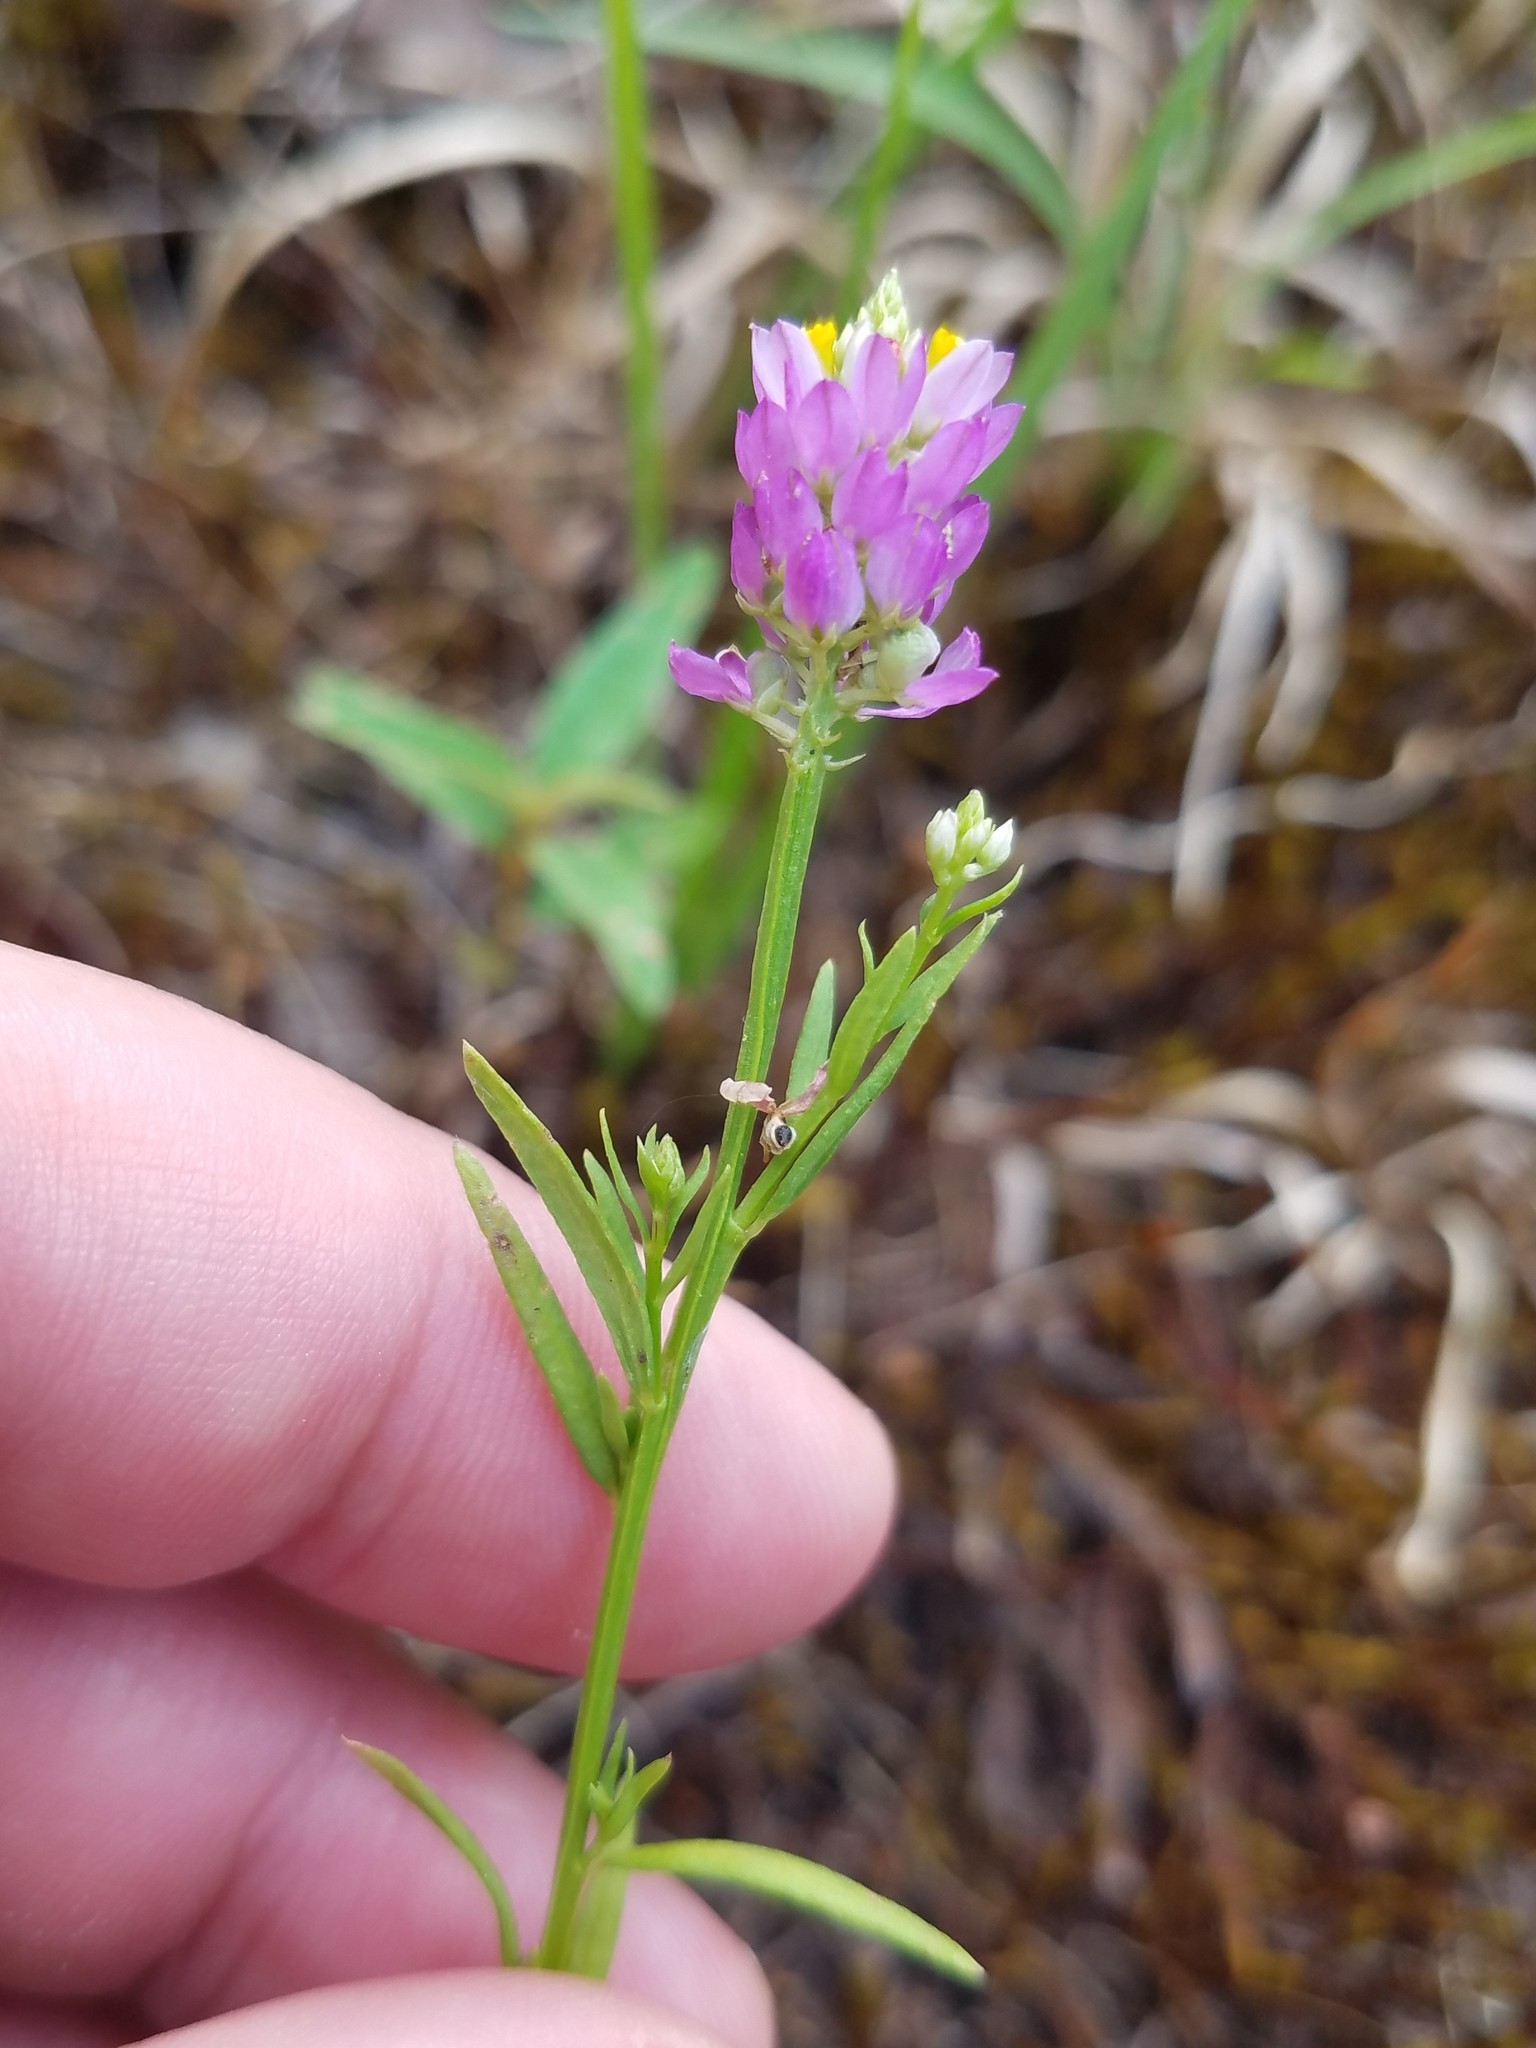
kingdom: Plantae
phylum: Tracheophyta
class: Magnoliopsida
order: Fabales
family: Polygalaceae
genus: Polygala
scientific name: Polygala curtissii
